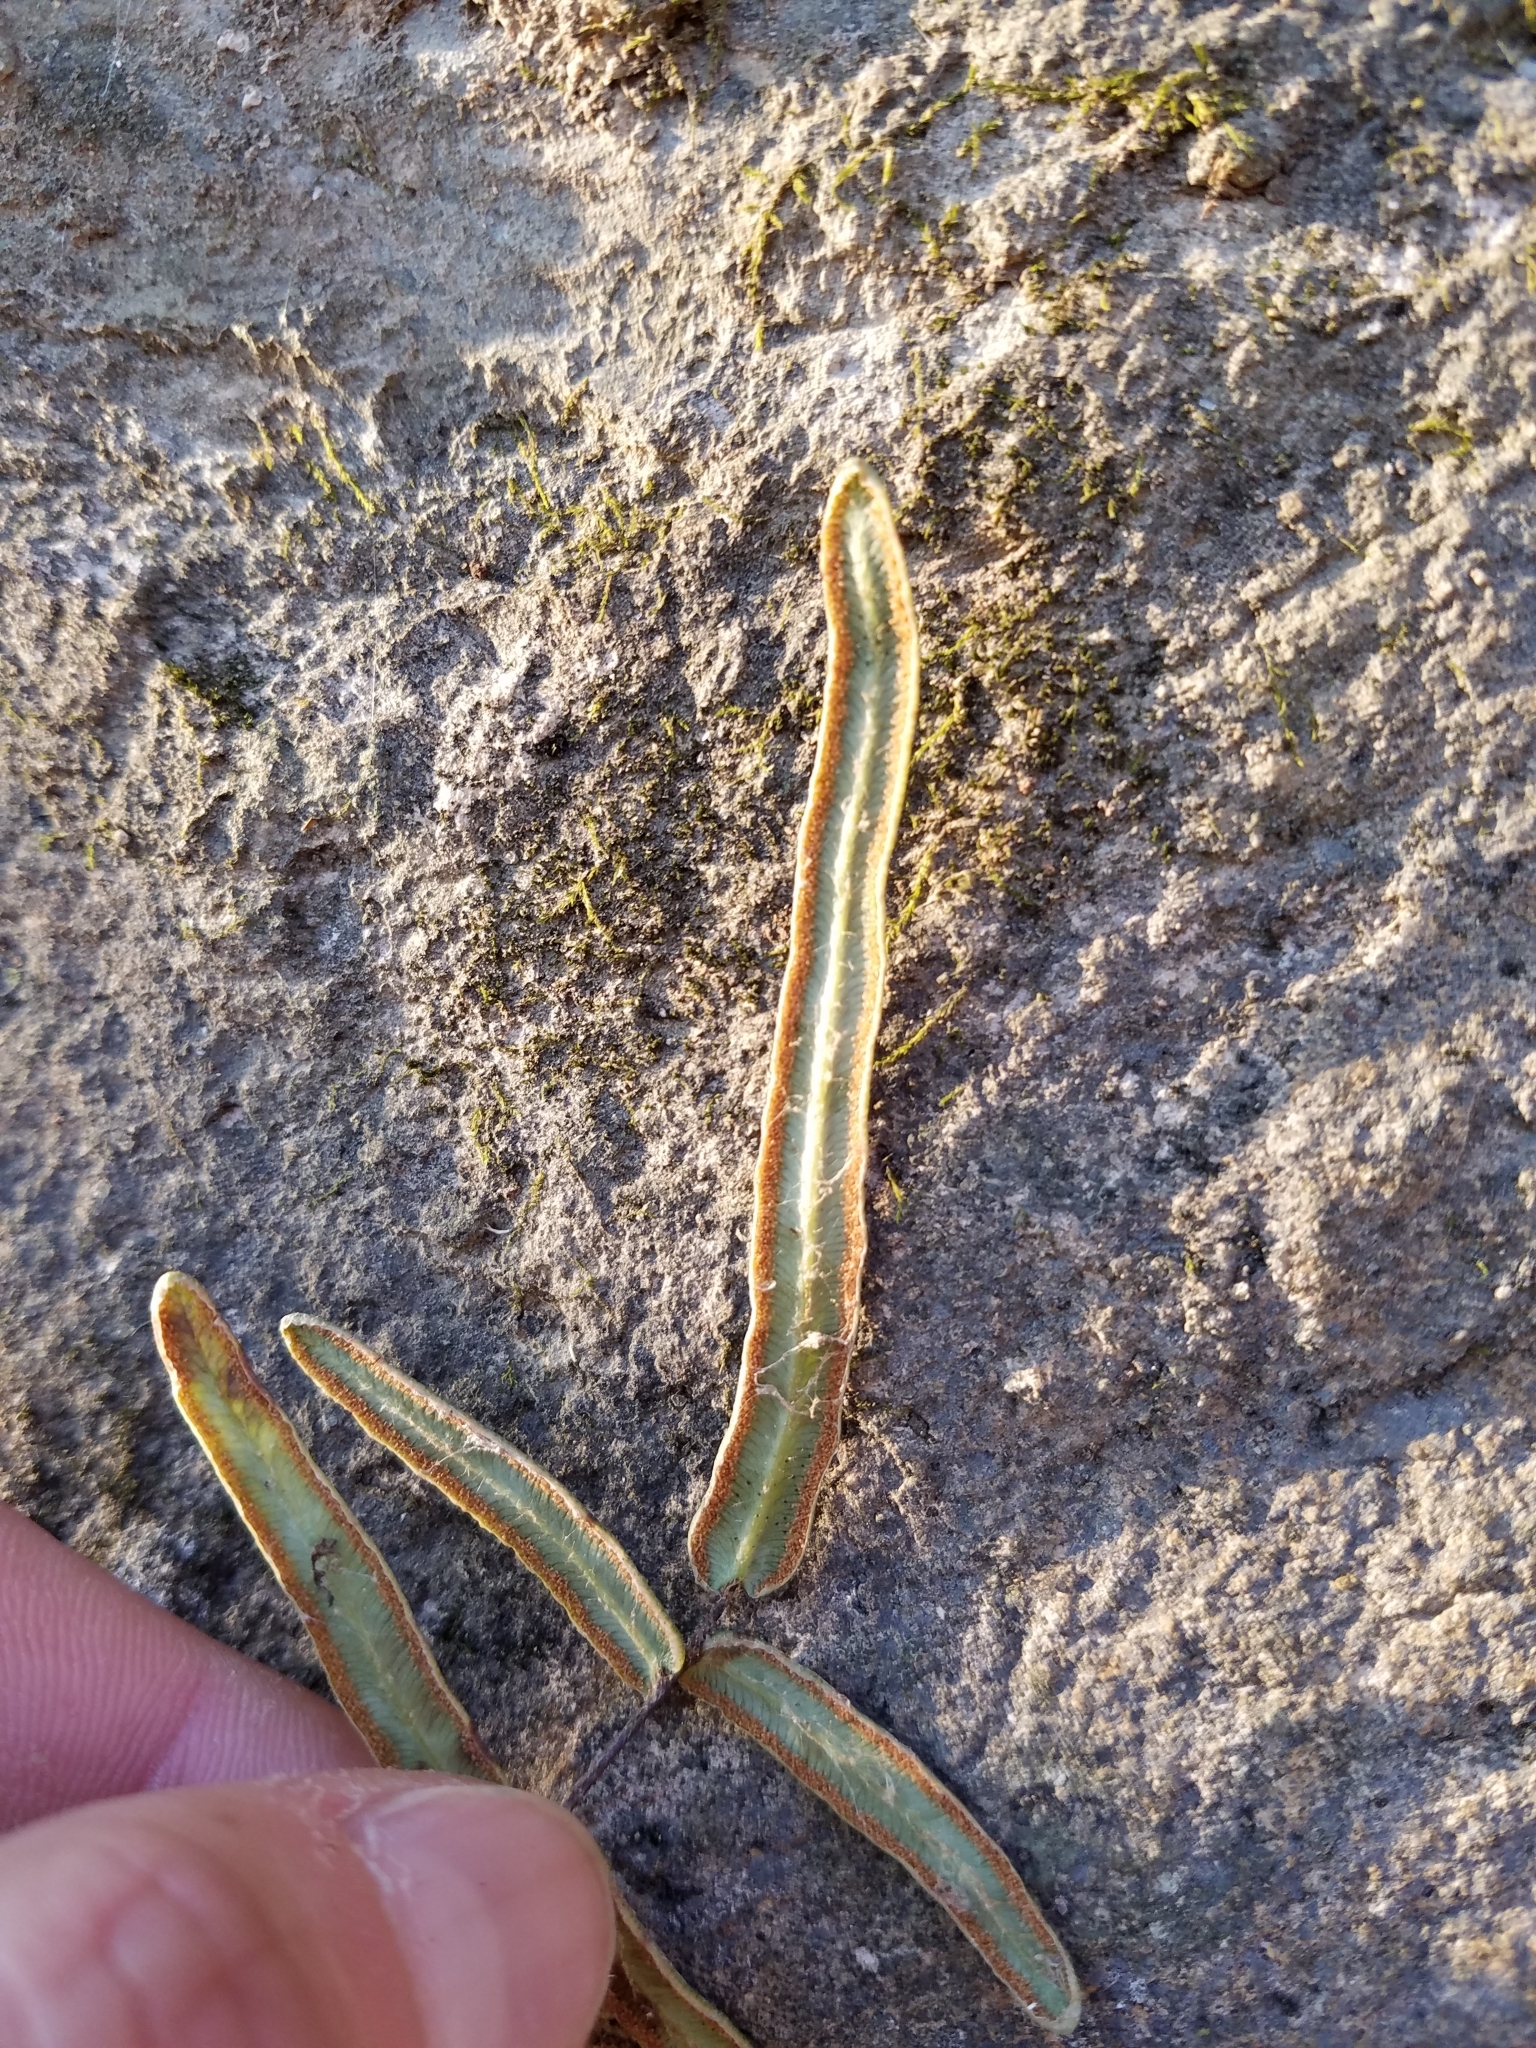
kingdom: Plantae
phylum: Tracheophyta
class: Polypodiopsida
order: Polypodiales
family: Pteridaceae
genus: Pellaea
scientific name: Pellaea atropurpurea
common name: Hairy cliffbrake
